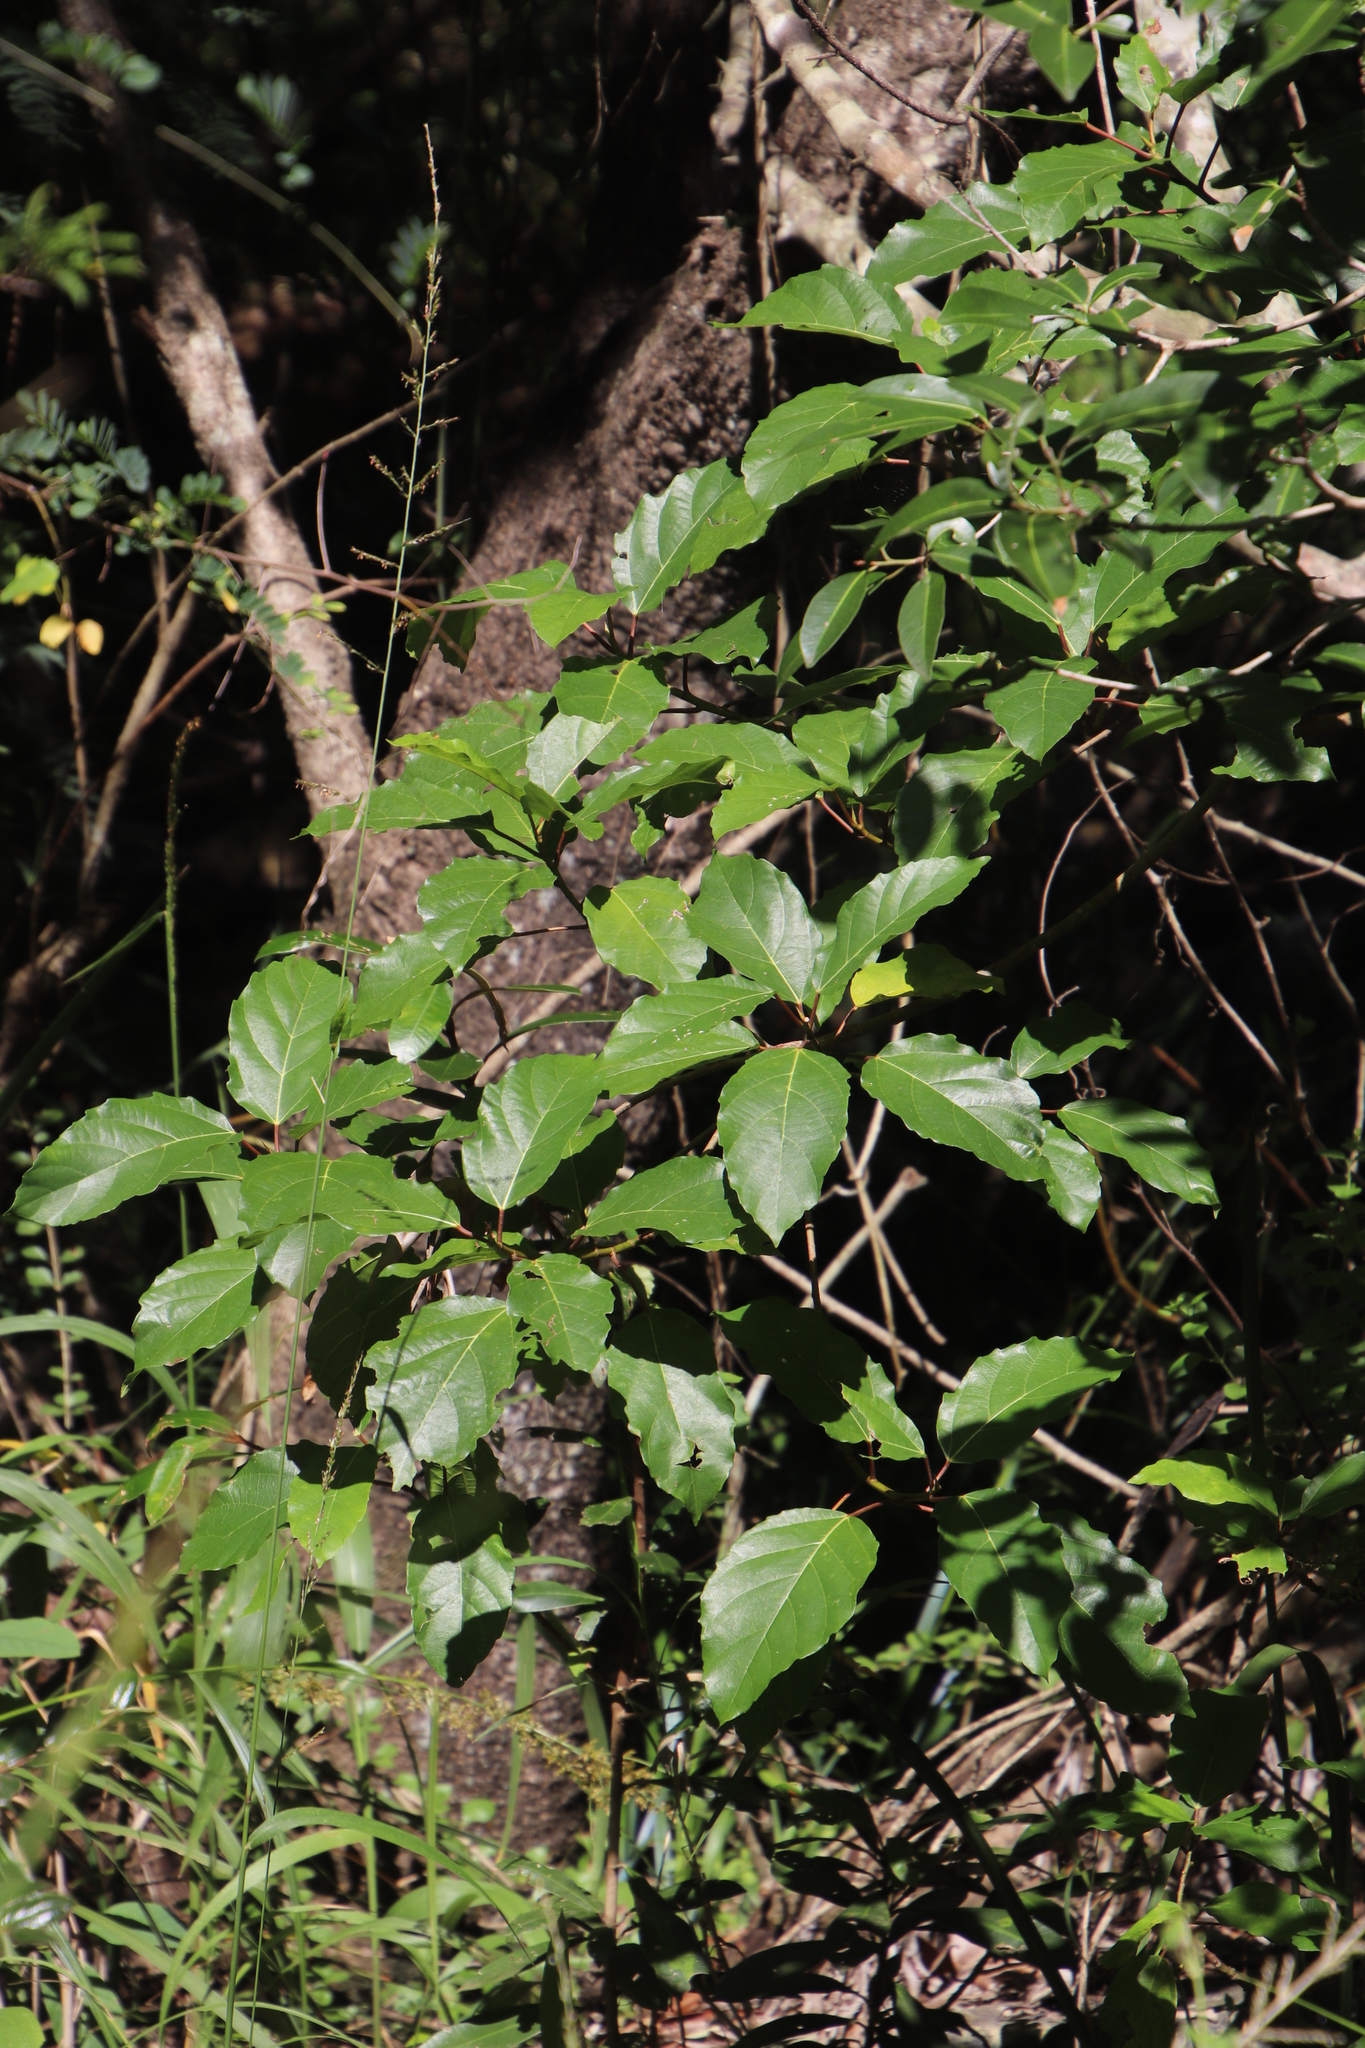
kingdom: Plantae
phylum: Tracheophyta
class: Magnoliopsida
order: Rosales
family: Moraceae
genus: Ficus
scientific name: Ficus sur
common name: Cape fig
